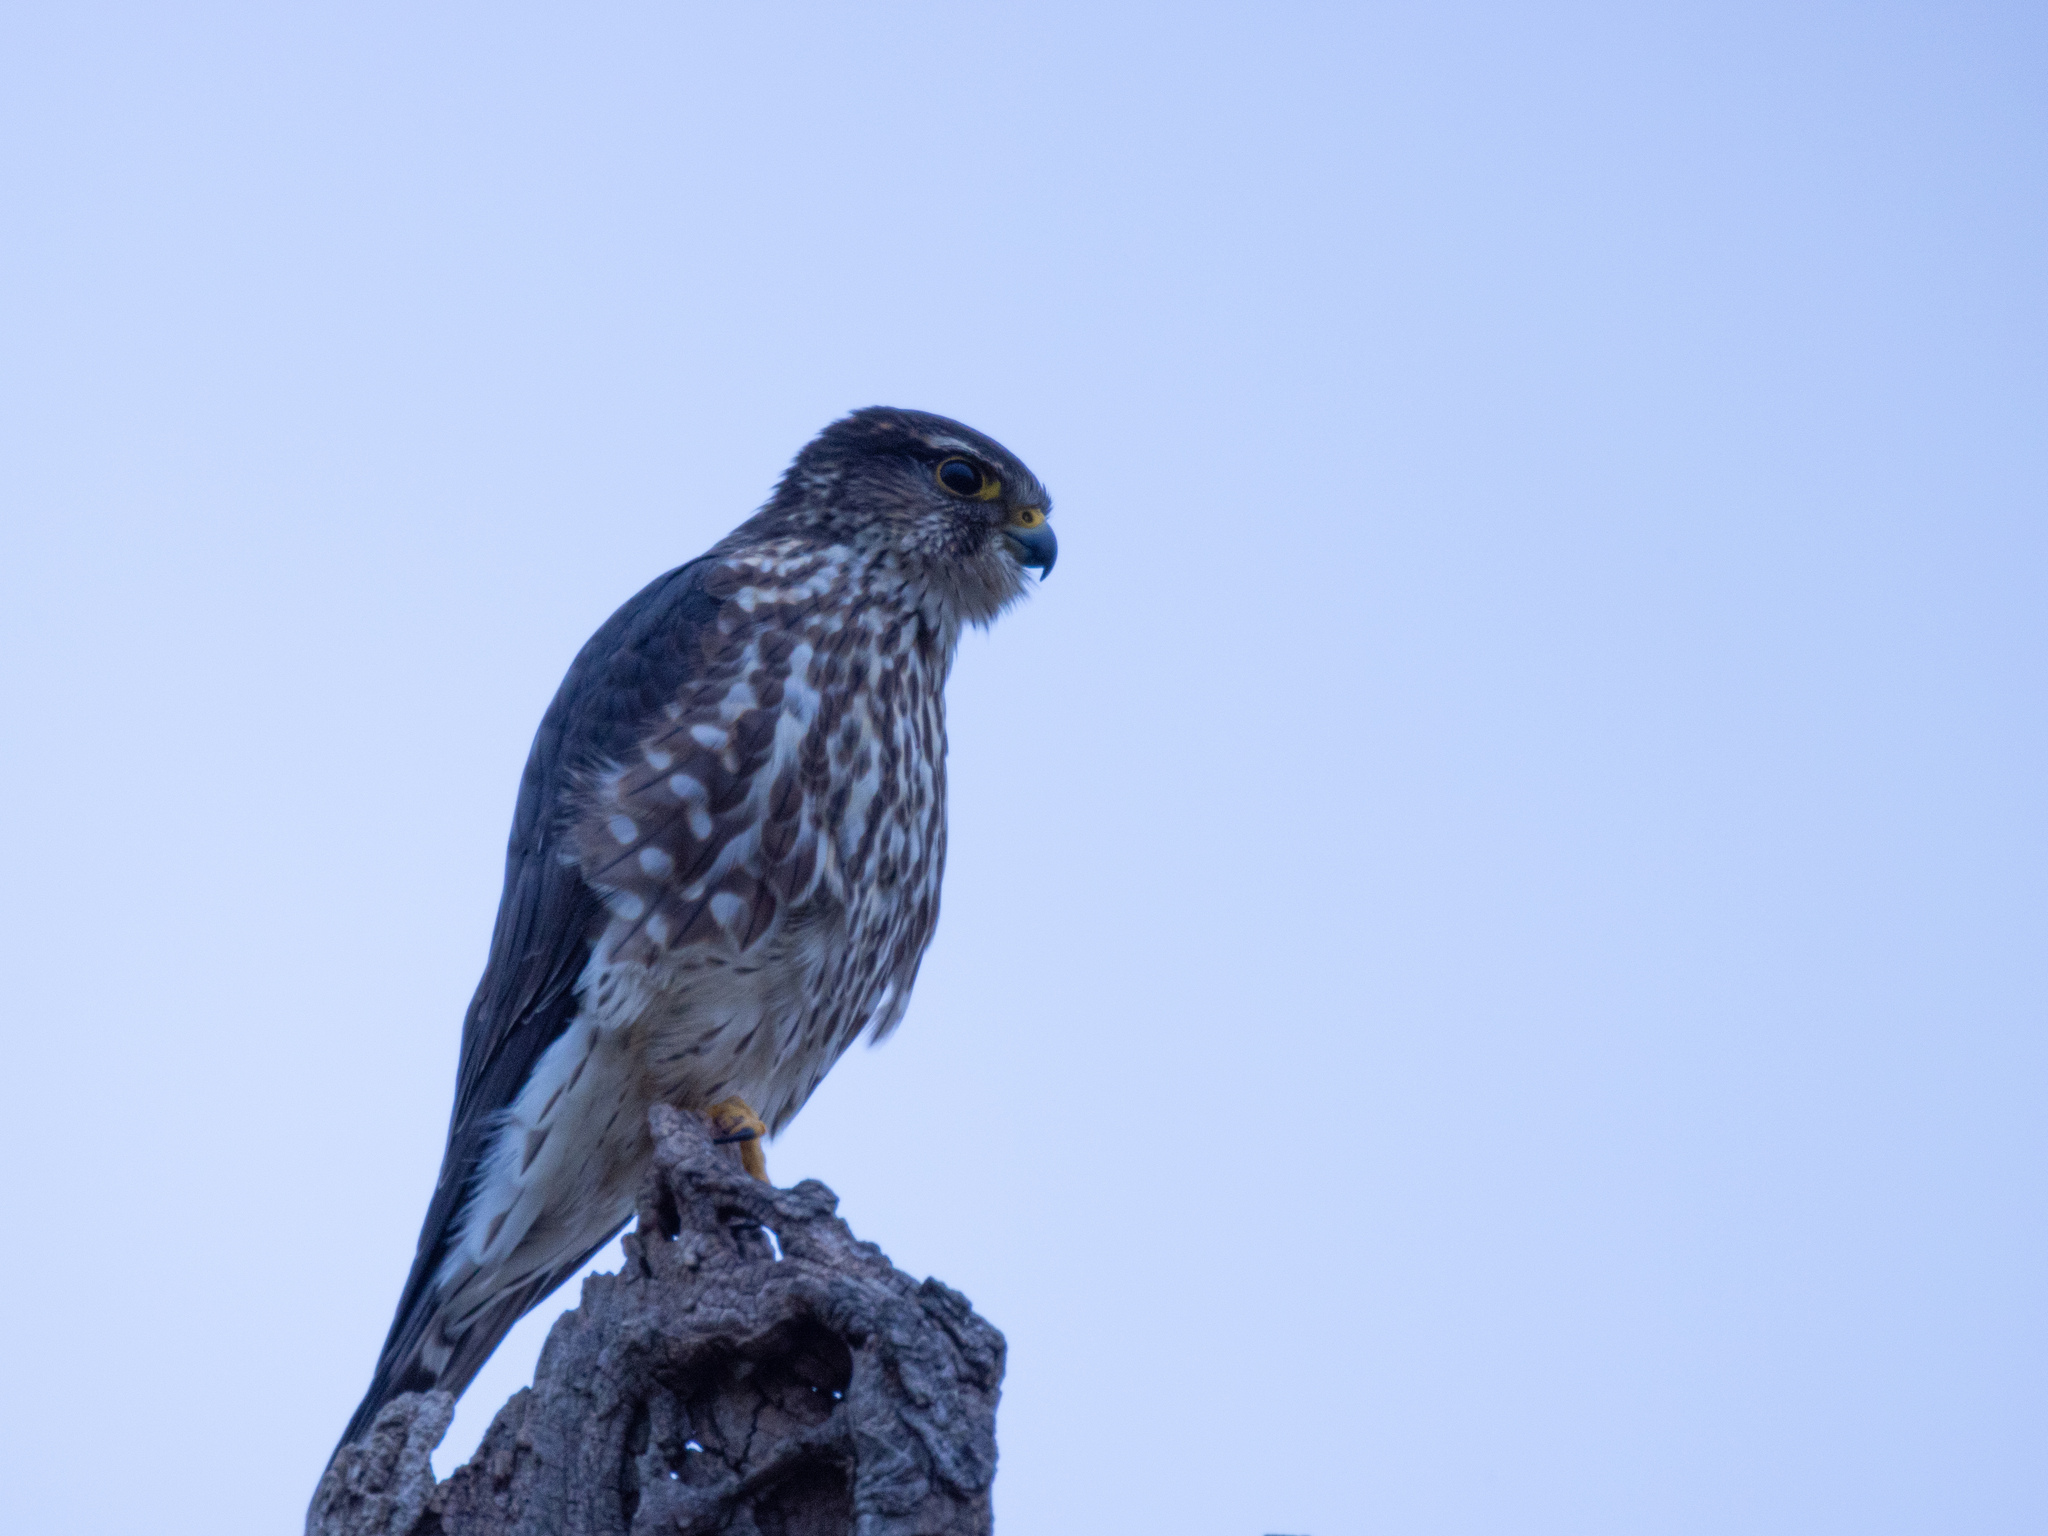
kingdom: Animalia
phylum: Chordata
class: Aves
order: Falconiformes
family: Falconidae
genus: Falco
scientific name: Falco columbarius
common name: Merlin
